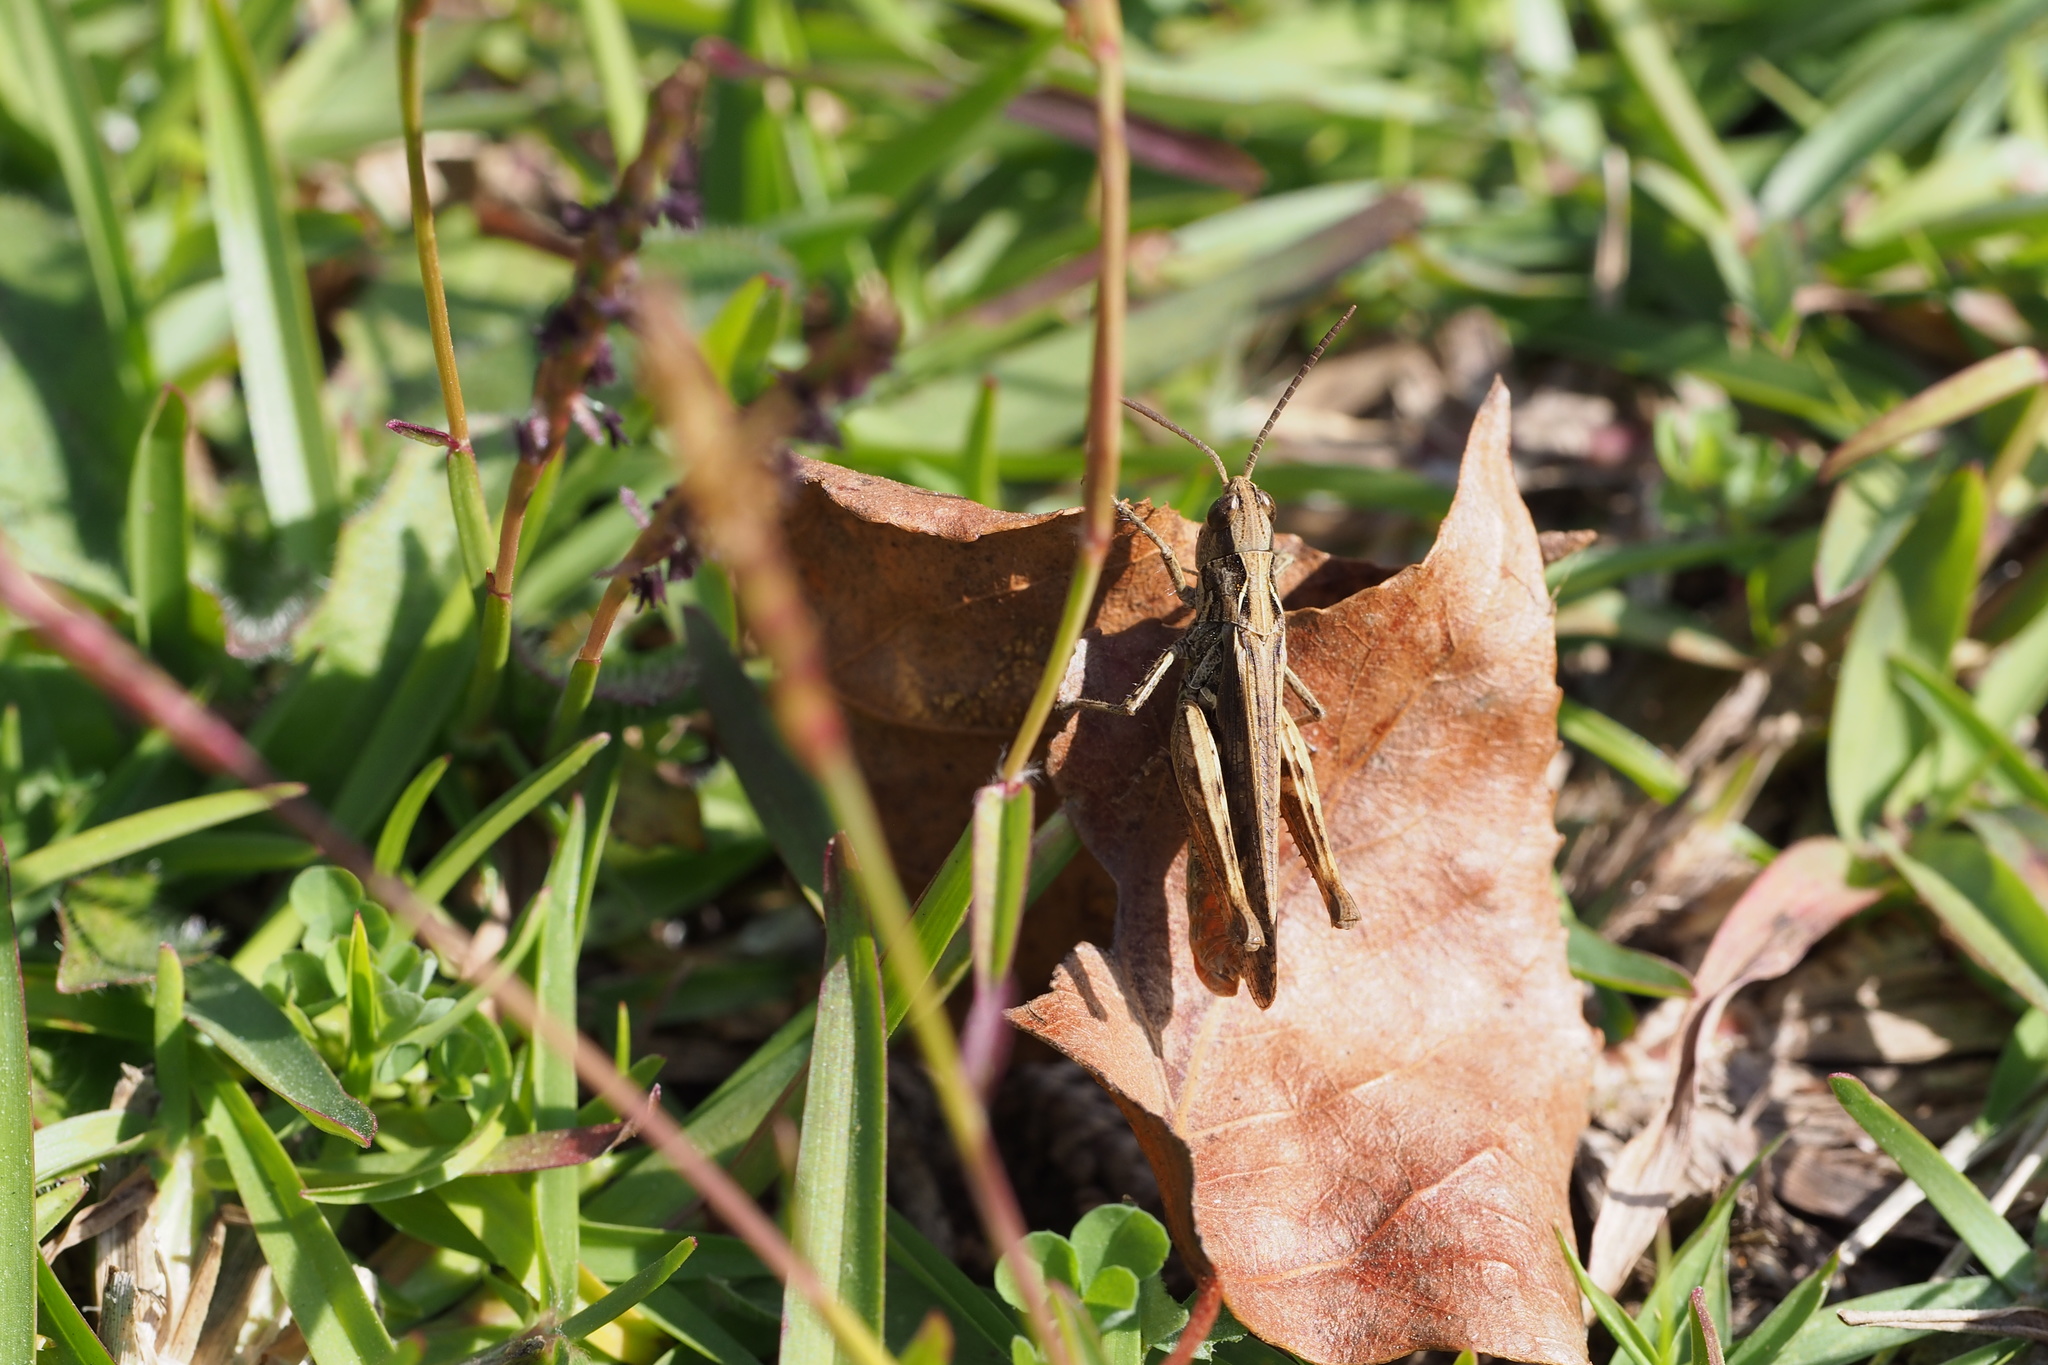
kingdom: Animalia
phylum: Arthropoda
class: Insecta
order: Orthoptera
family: Acrididae
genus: Chorthippus
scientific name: Chorthippus maritimus
